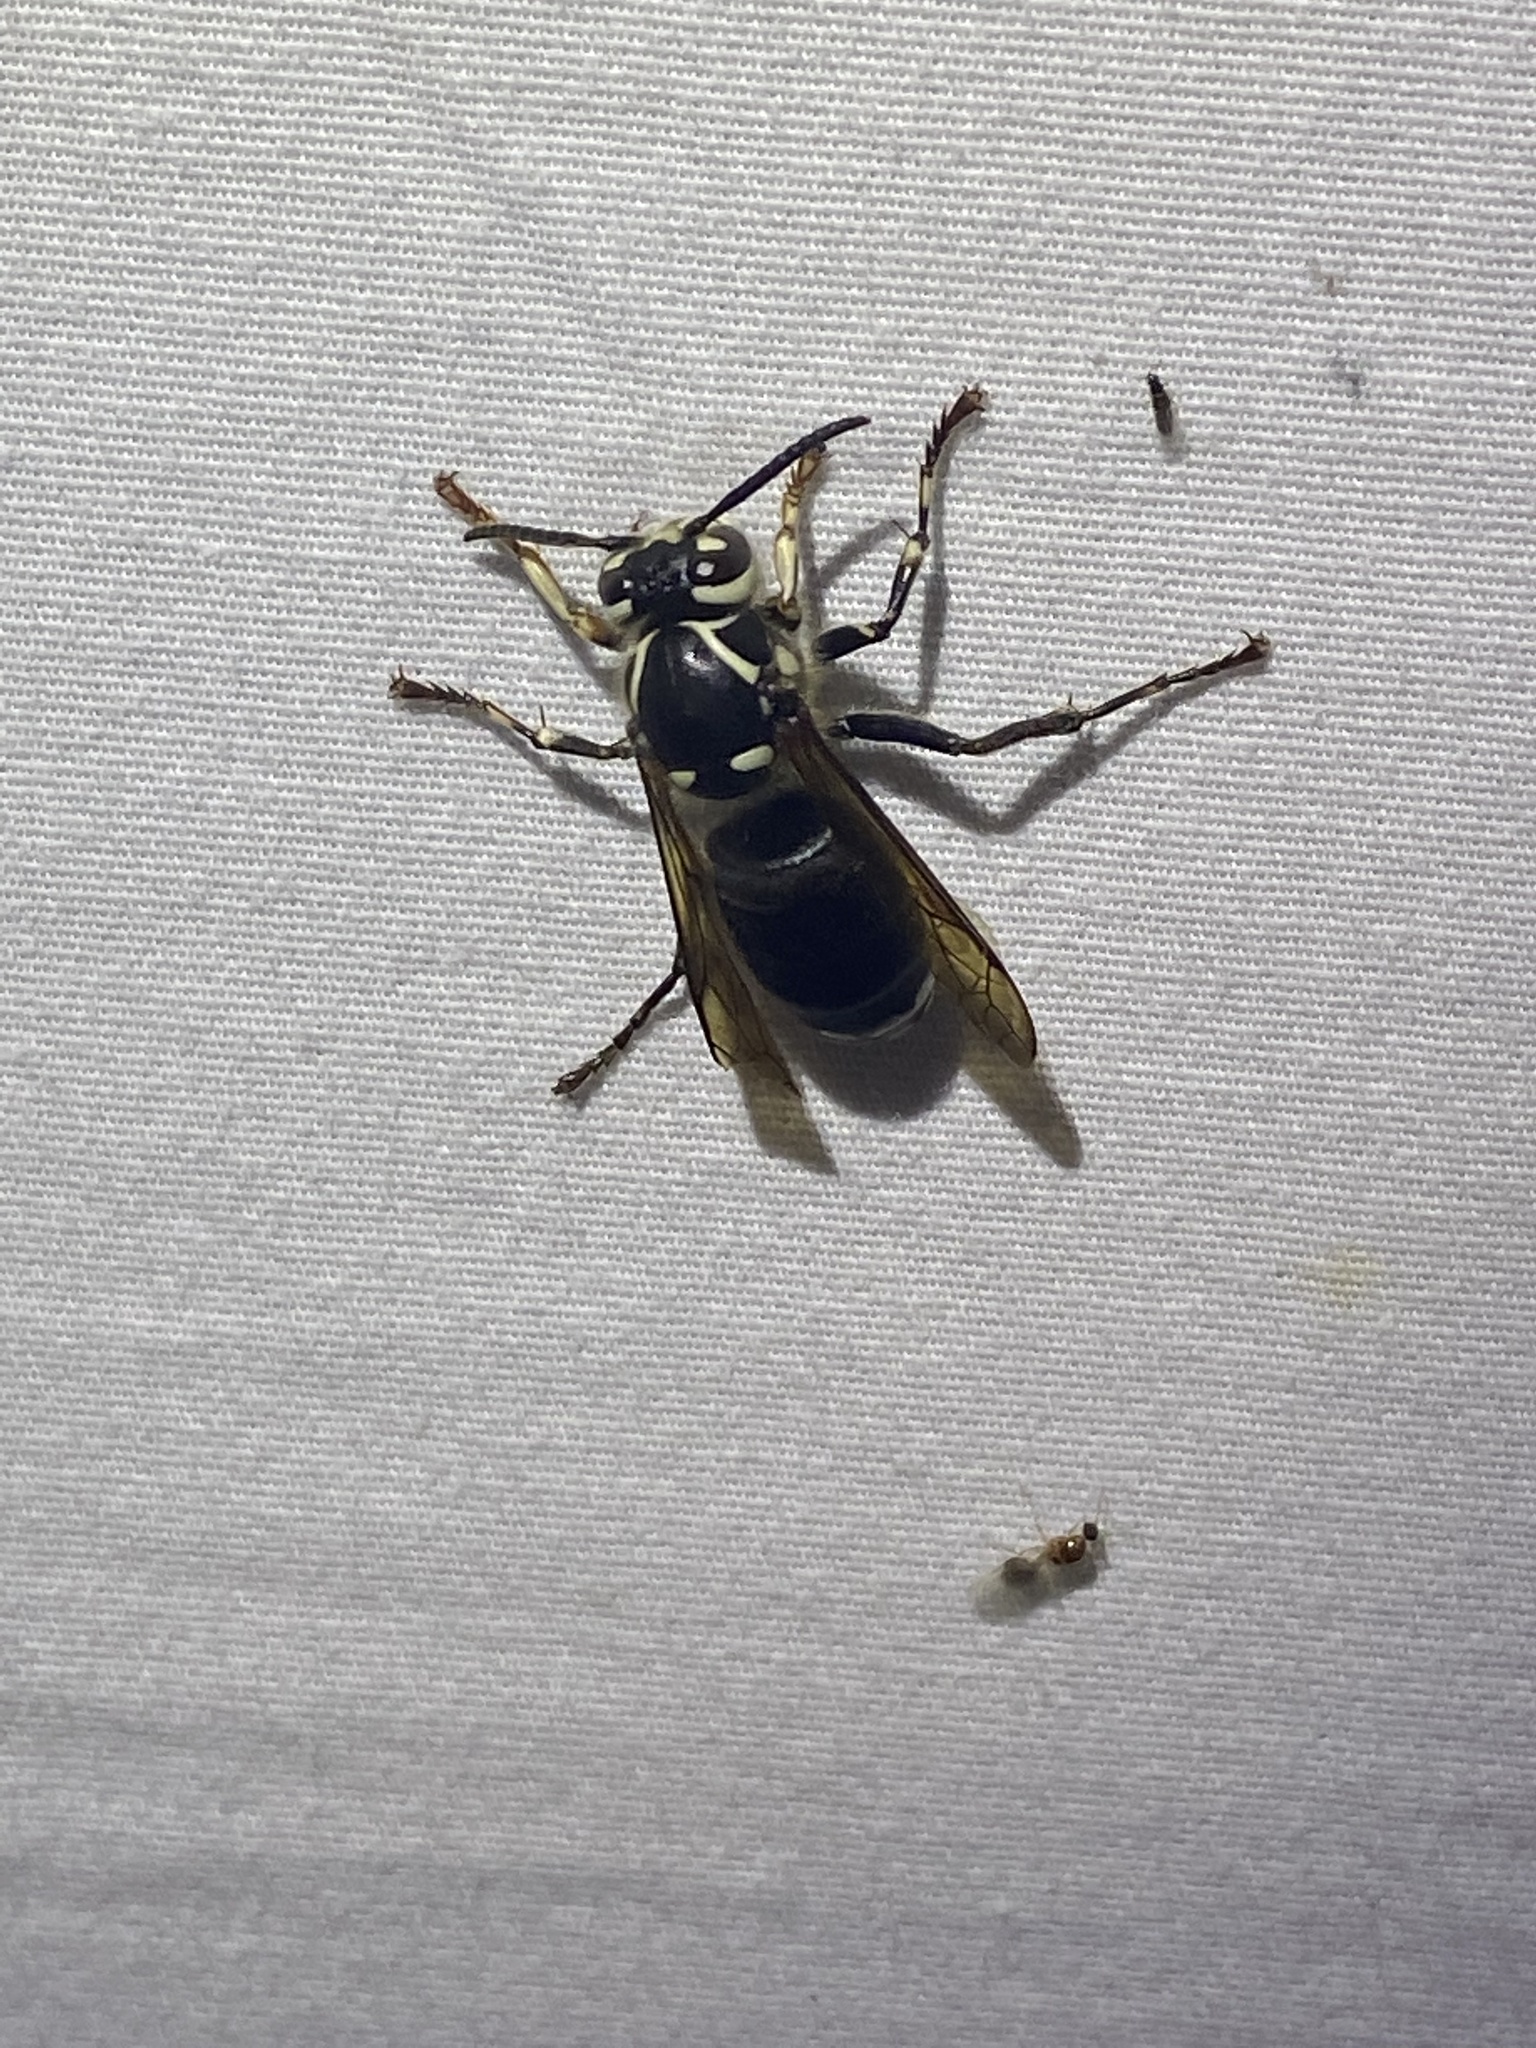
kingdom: Animalia
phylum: Arthropoda
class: Insecta
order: Hymenoptera
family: Vespidae
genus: Dolichovespula
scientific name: Dolichovespula maculata
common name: Bald-faced hornet
